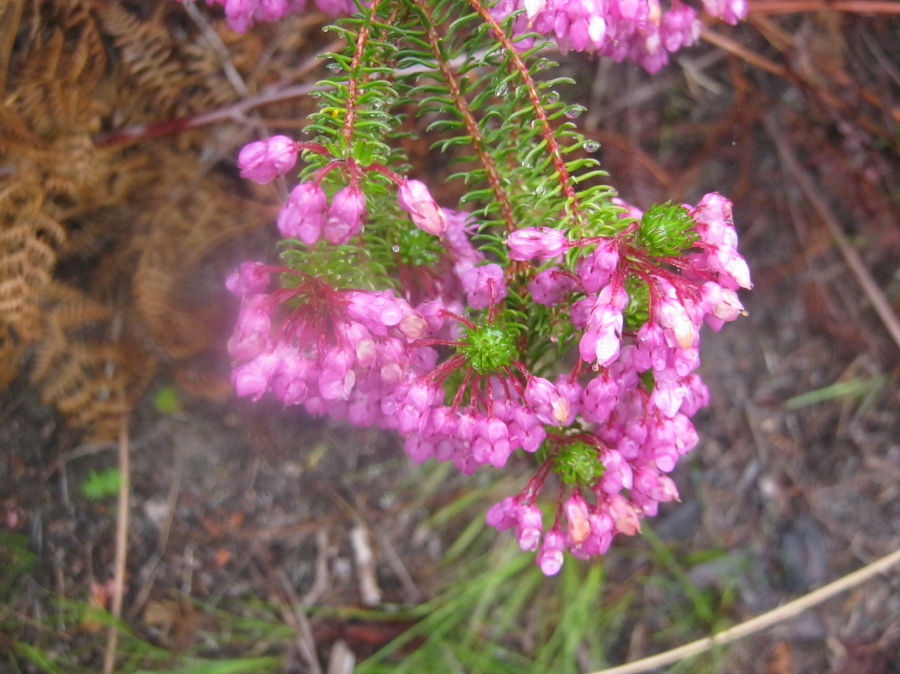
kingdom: Plantae
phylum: Tracheophyta
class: Magnoliopsida
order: Ericales
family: Ericaceae
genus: Erica
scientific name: Erica cubica
